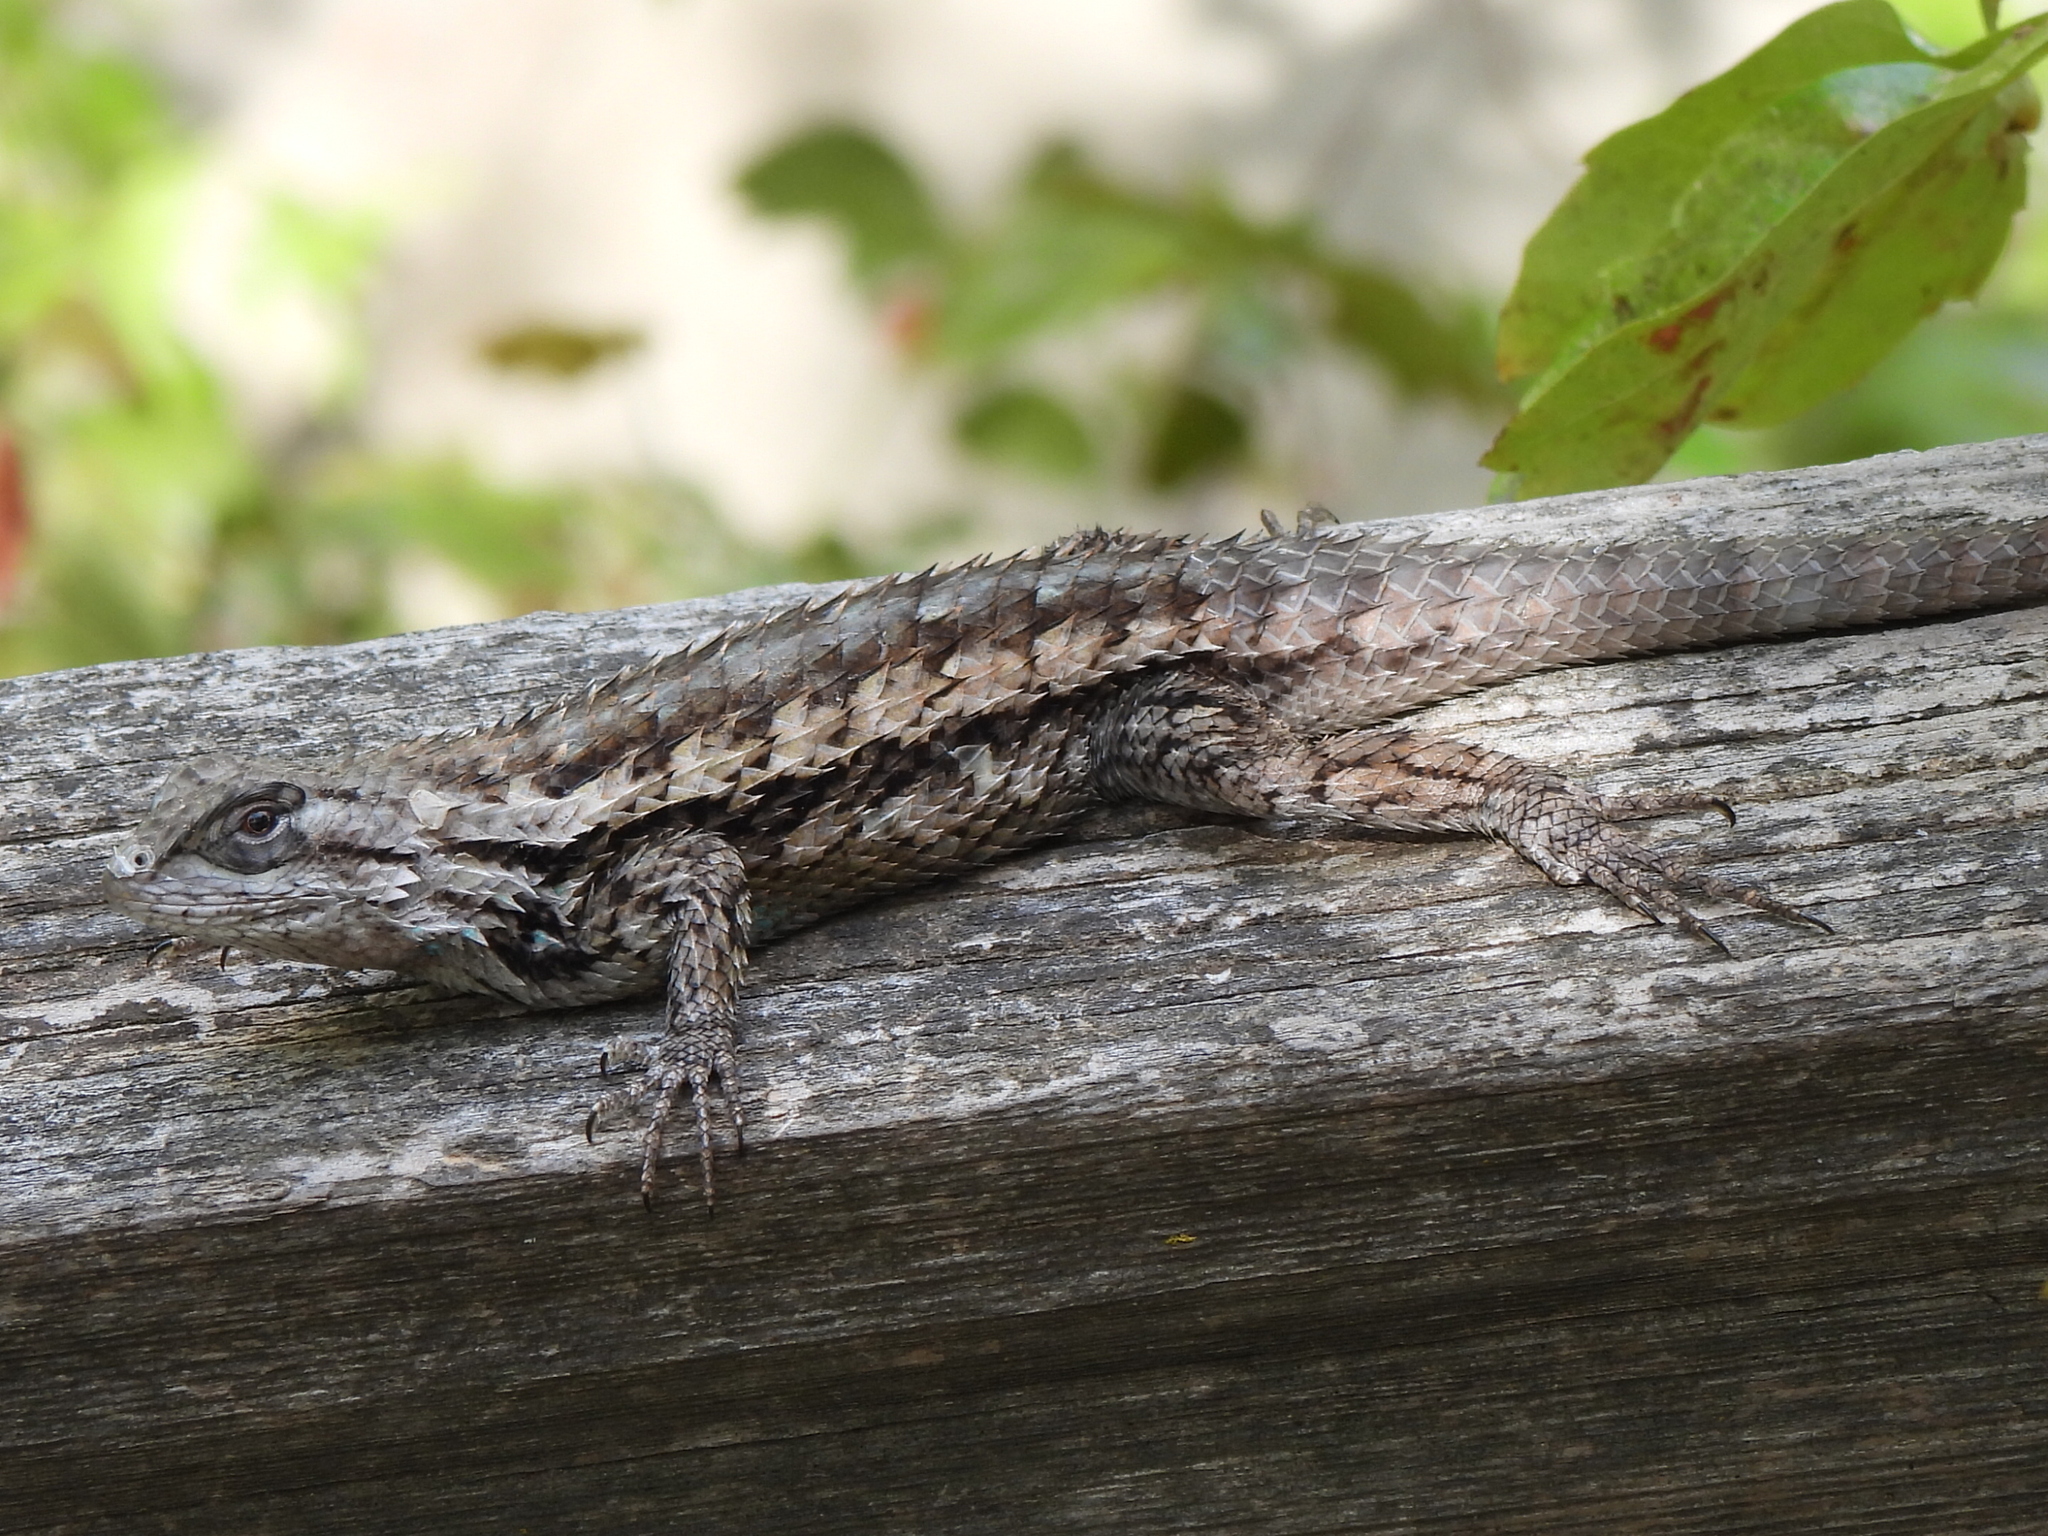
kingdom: Animalia
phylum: Chordata
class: Squamata
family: Phrynosomatidae
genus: Sceloporus
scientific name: Sceloporus olivaceus
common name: Texas spiny lizard
